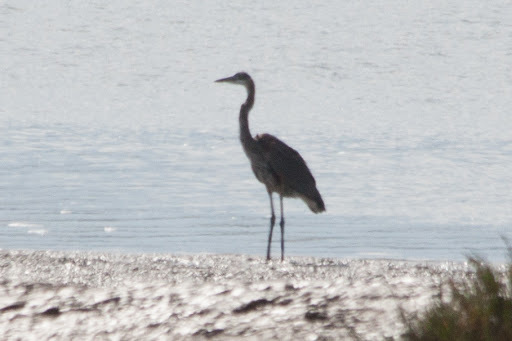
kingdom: Animalia
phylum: Chordata
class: Aves
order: Pelecaniformes
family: Ardeidae
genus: Ardea
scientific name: Ardea herodias
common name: Great blue heron
